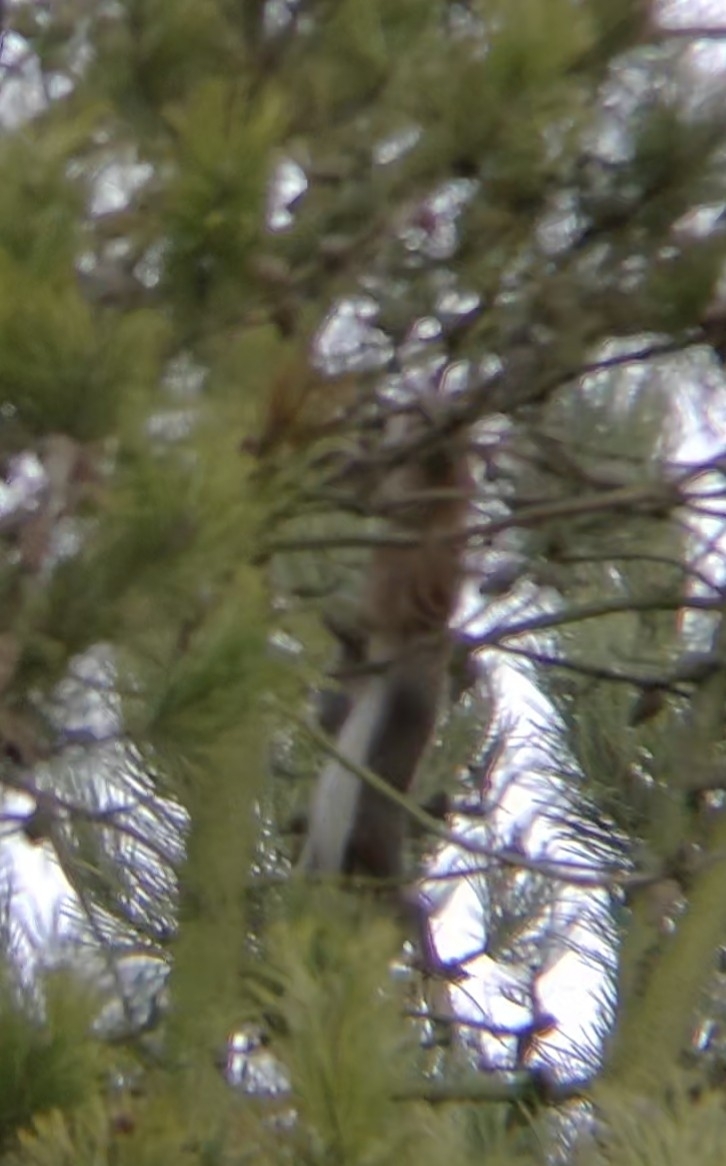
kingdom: Animalia
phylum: Chordata
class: Mammalia
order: Rodentia
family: Sciuridae
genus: Sciurus
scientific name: Sciurus vulgaris
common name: Eurasian red squirrel
